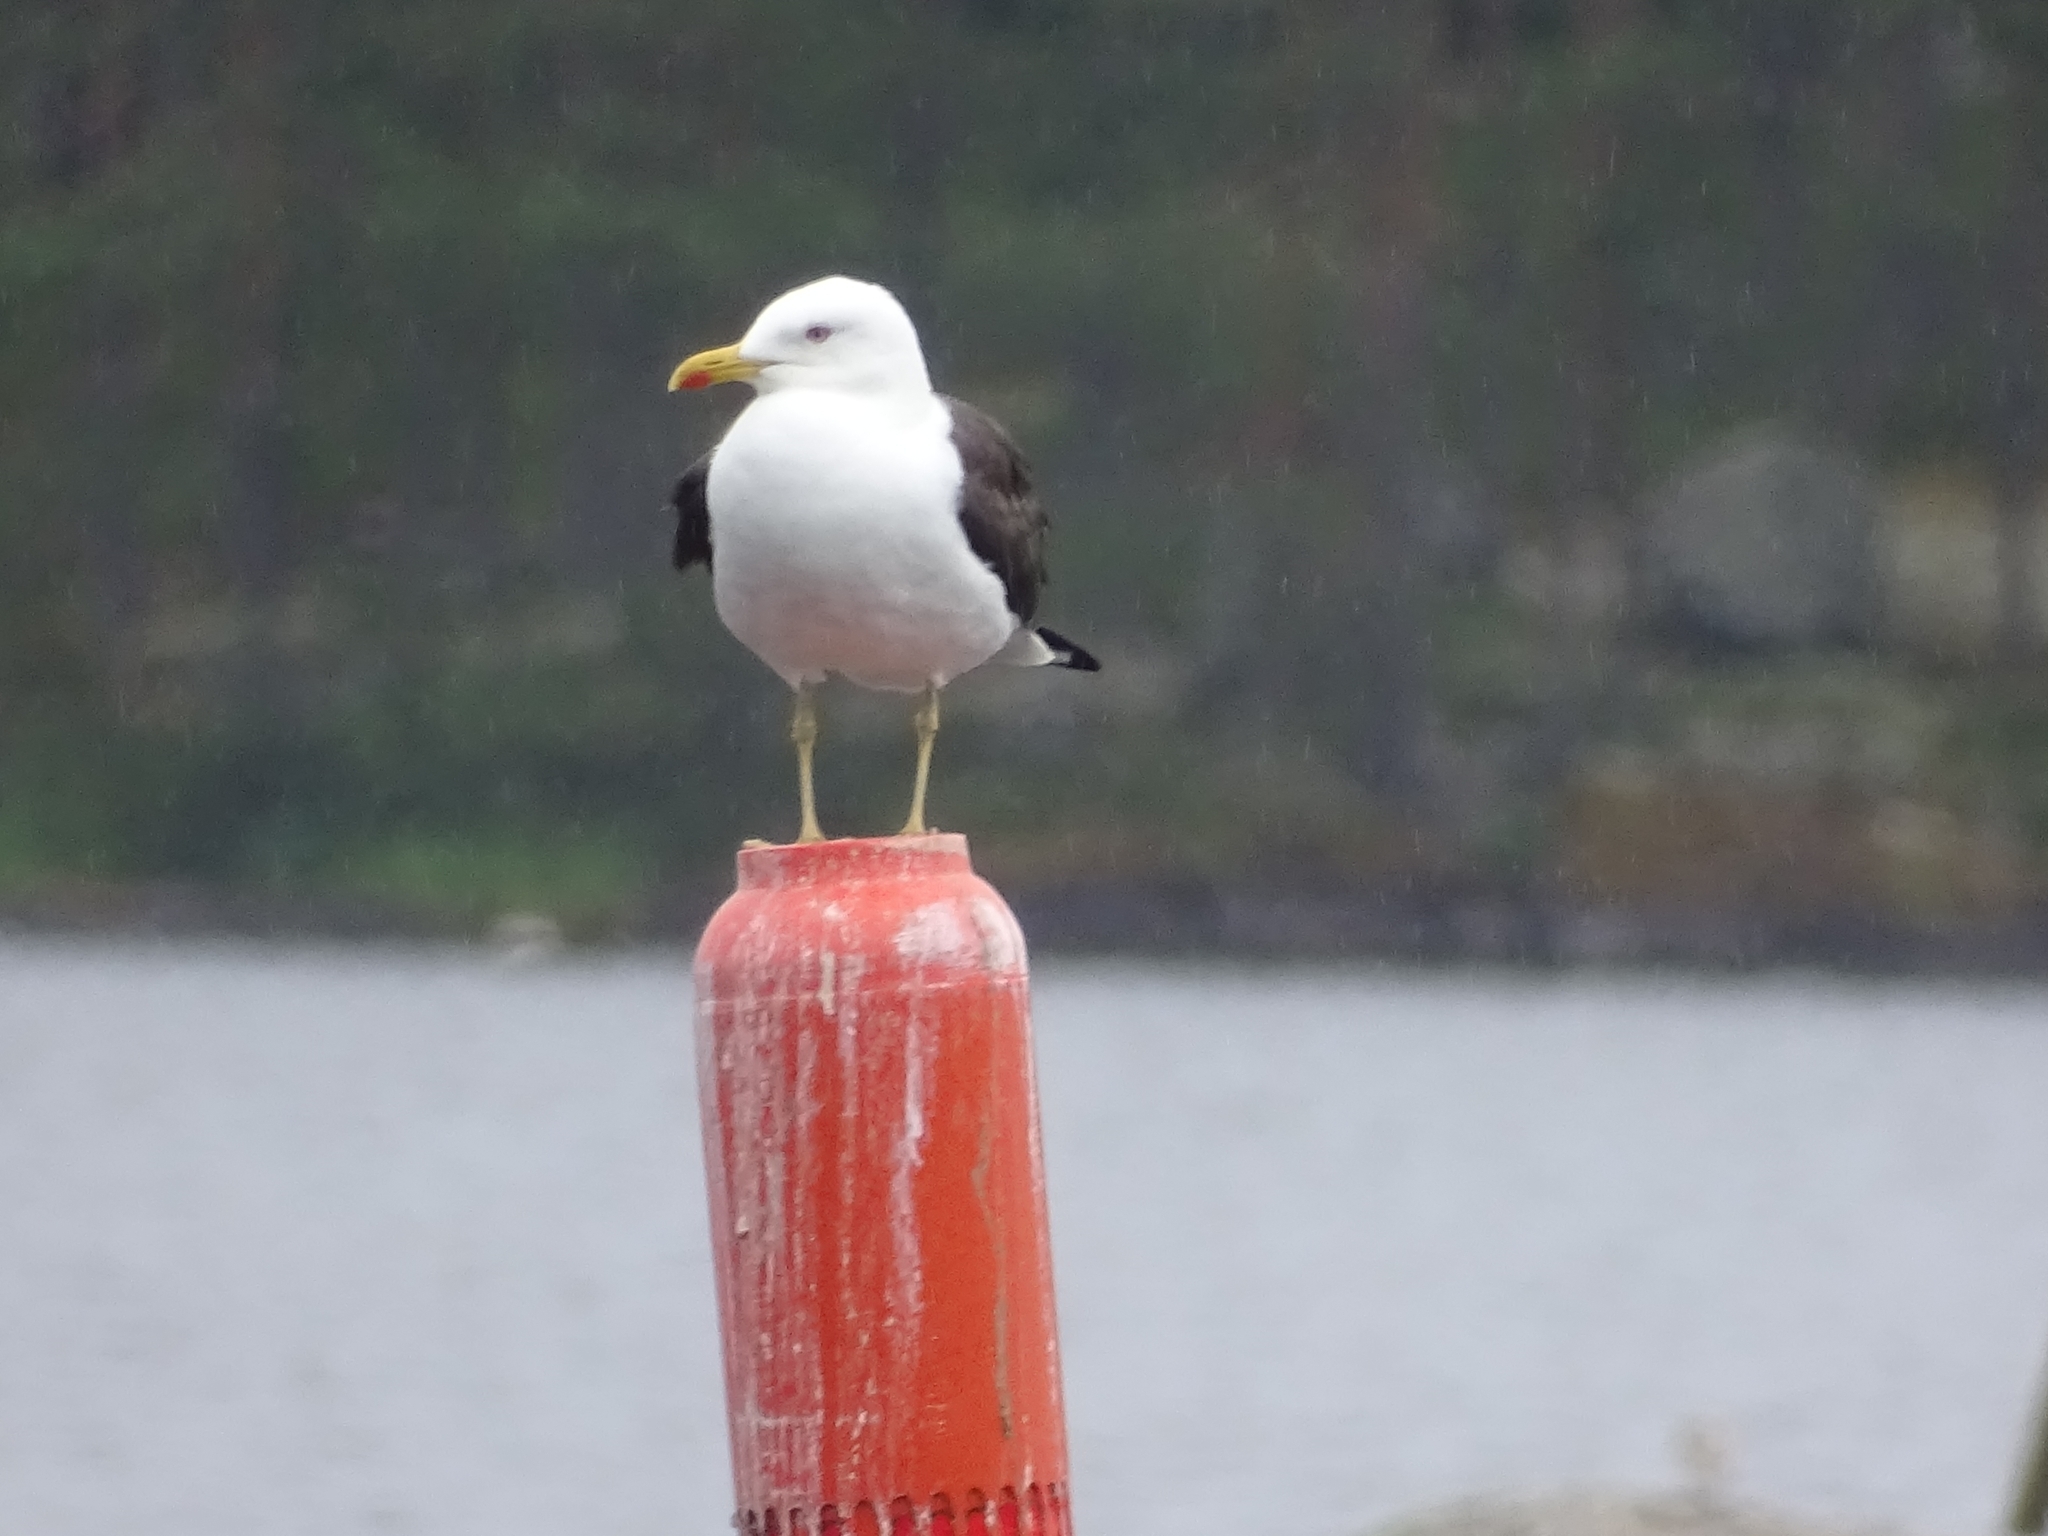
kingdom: Animalia
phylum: Chordata
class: Aves
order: Charadriiformes
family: Laridae
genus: Larus
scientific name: Larus fuscus
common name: Lesser black-backed gull
